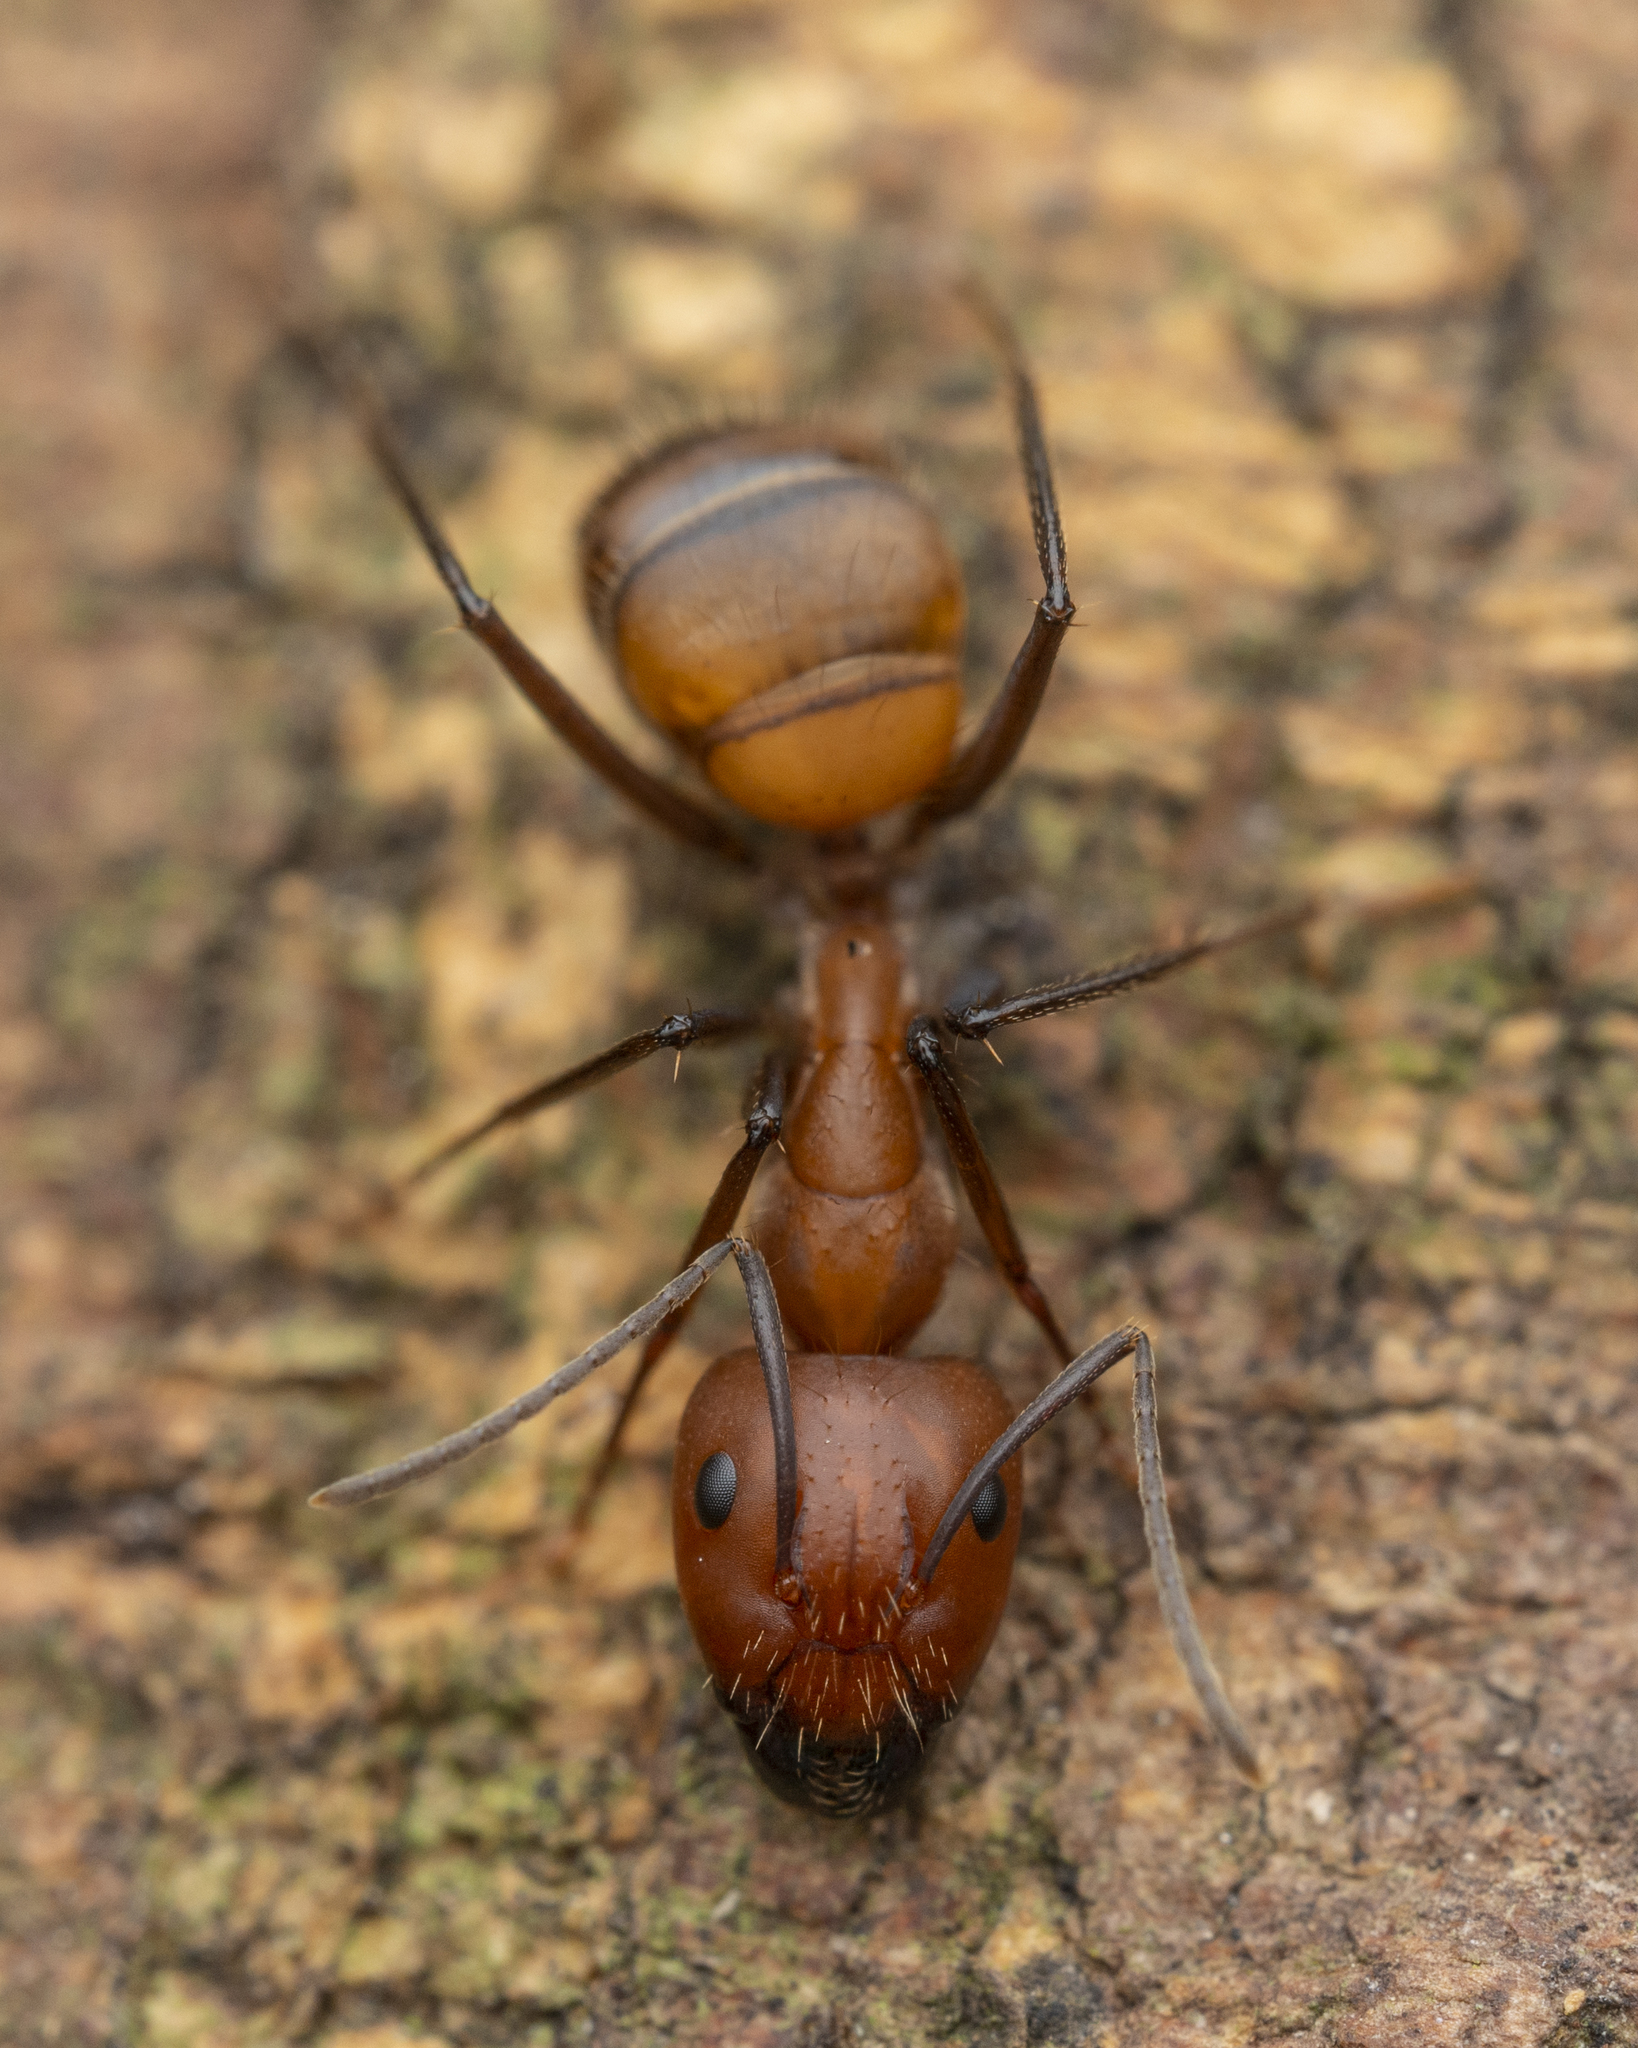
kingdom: Animalia
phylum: Arthropoda
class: Insecta
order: Hymenoptera
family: Formicidae
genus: Camponotus
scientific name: Camponotus nicobarensis
